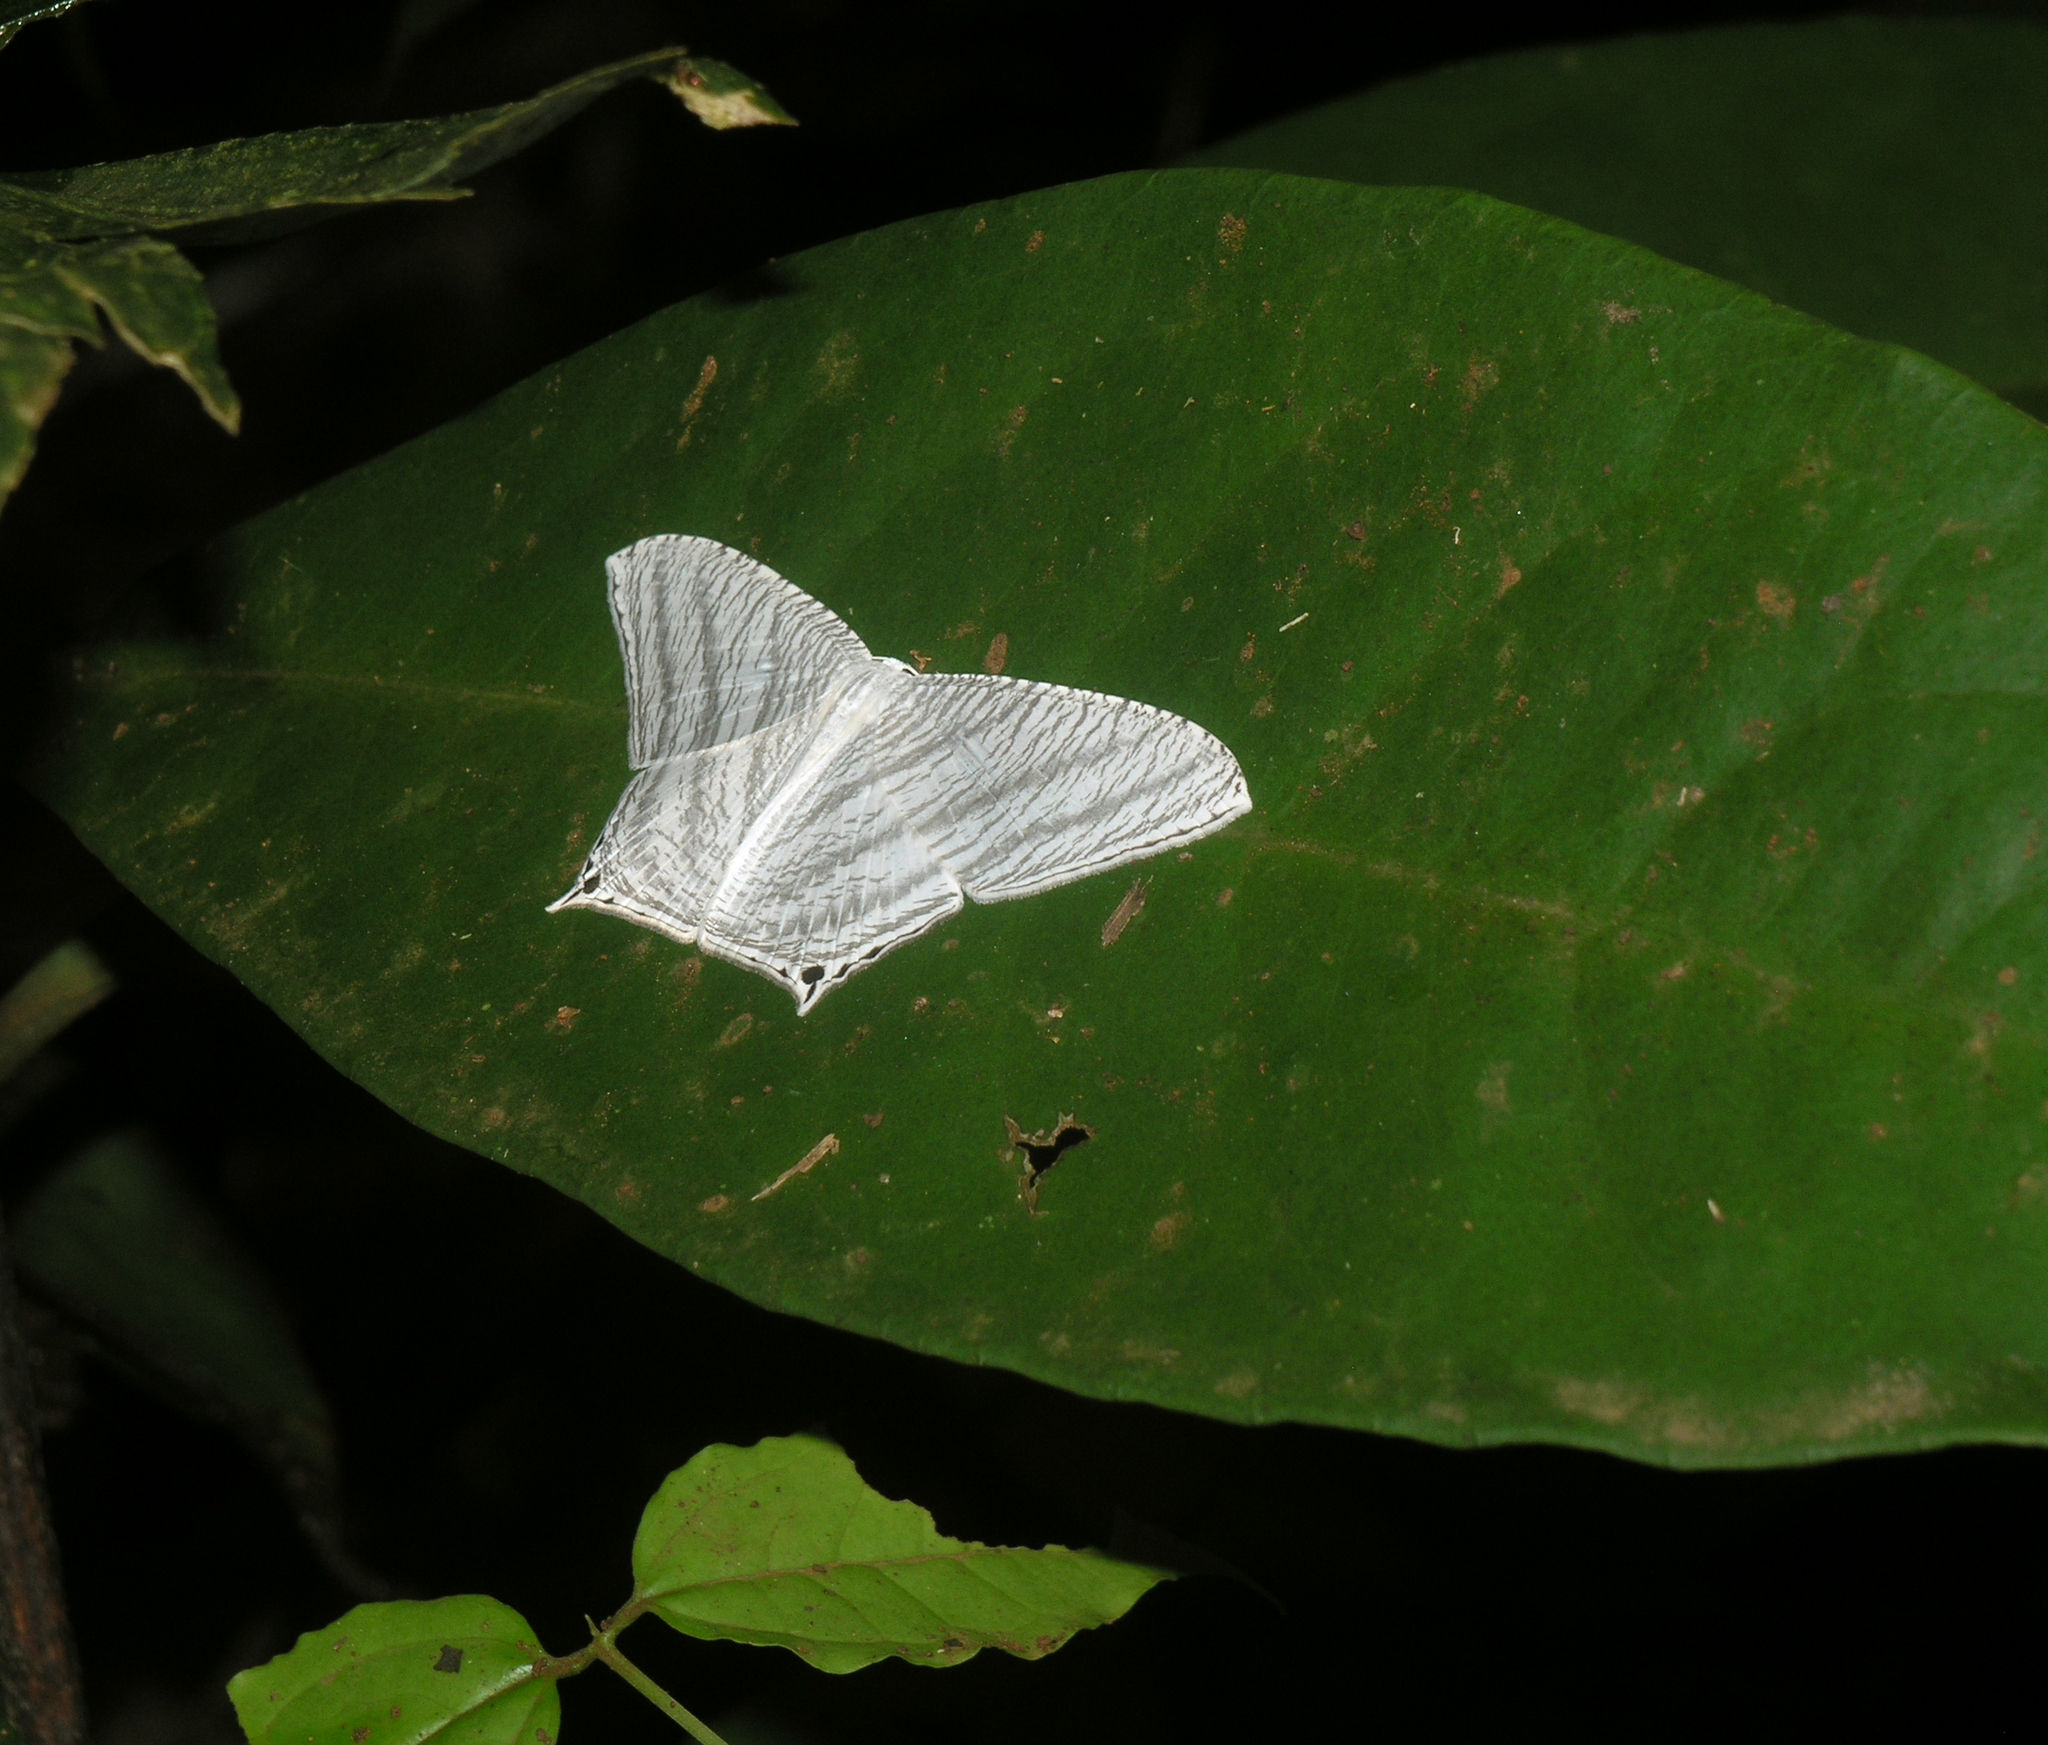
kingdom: Animalia
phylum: Arthropoda
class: Insecta
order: Lepidoptera
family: Uraniidae
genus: Micronia
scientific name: Micronia aculeata
